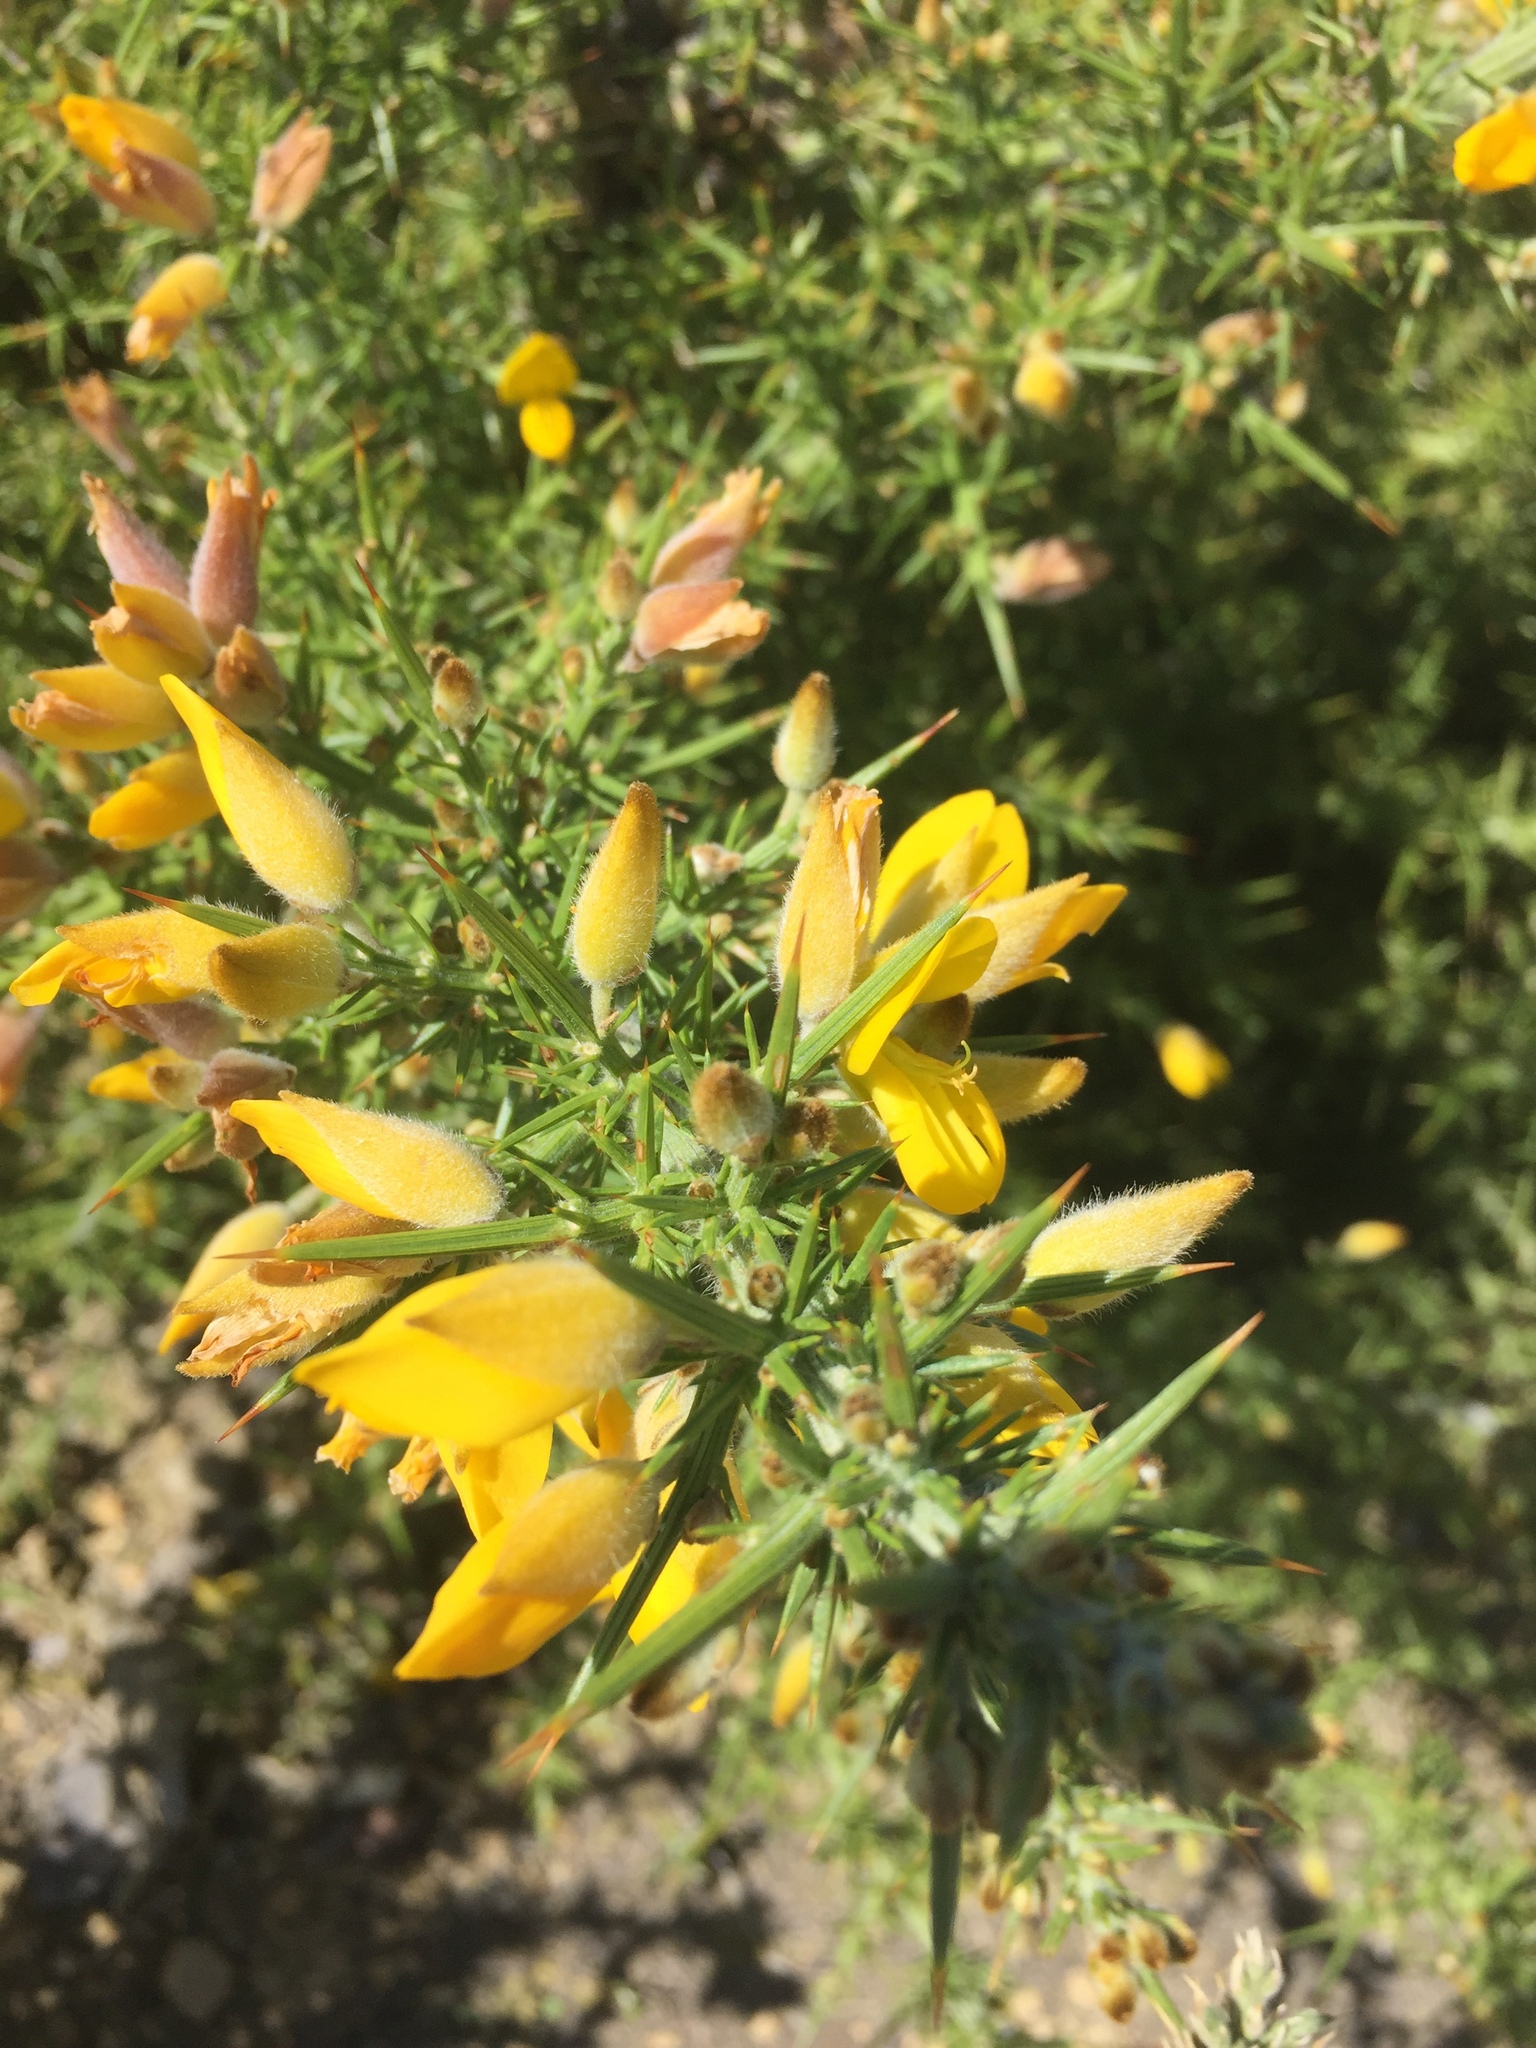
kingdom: Plantae
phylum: Tracheophyta
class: Magnoliopsida
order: Fabales
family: Fabaceae
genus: Ulex
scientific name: Ulex europaeus
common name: Common gorse
